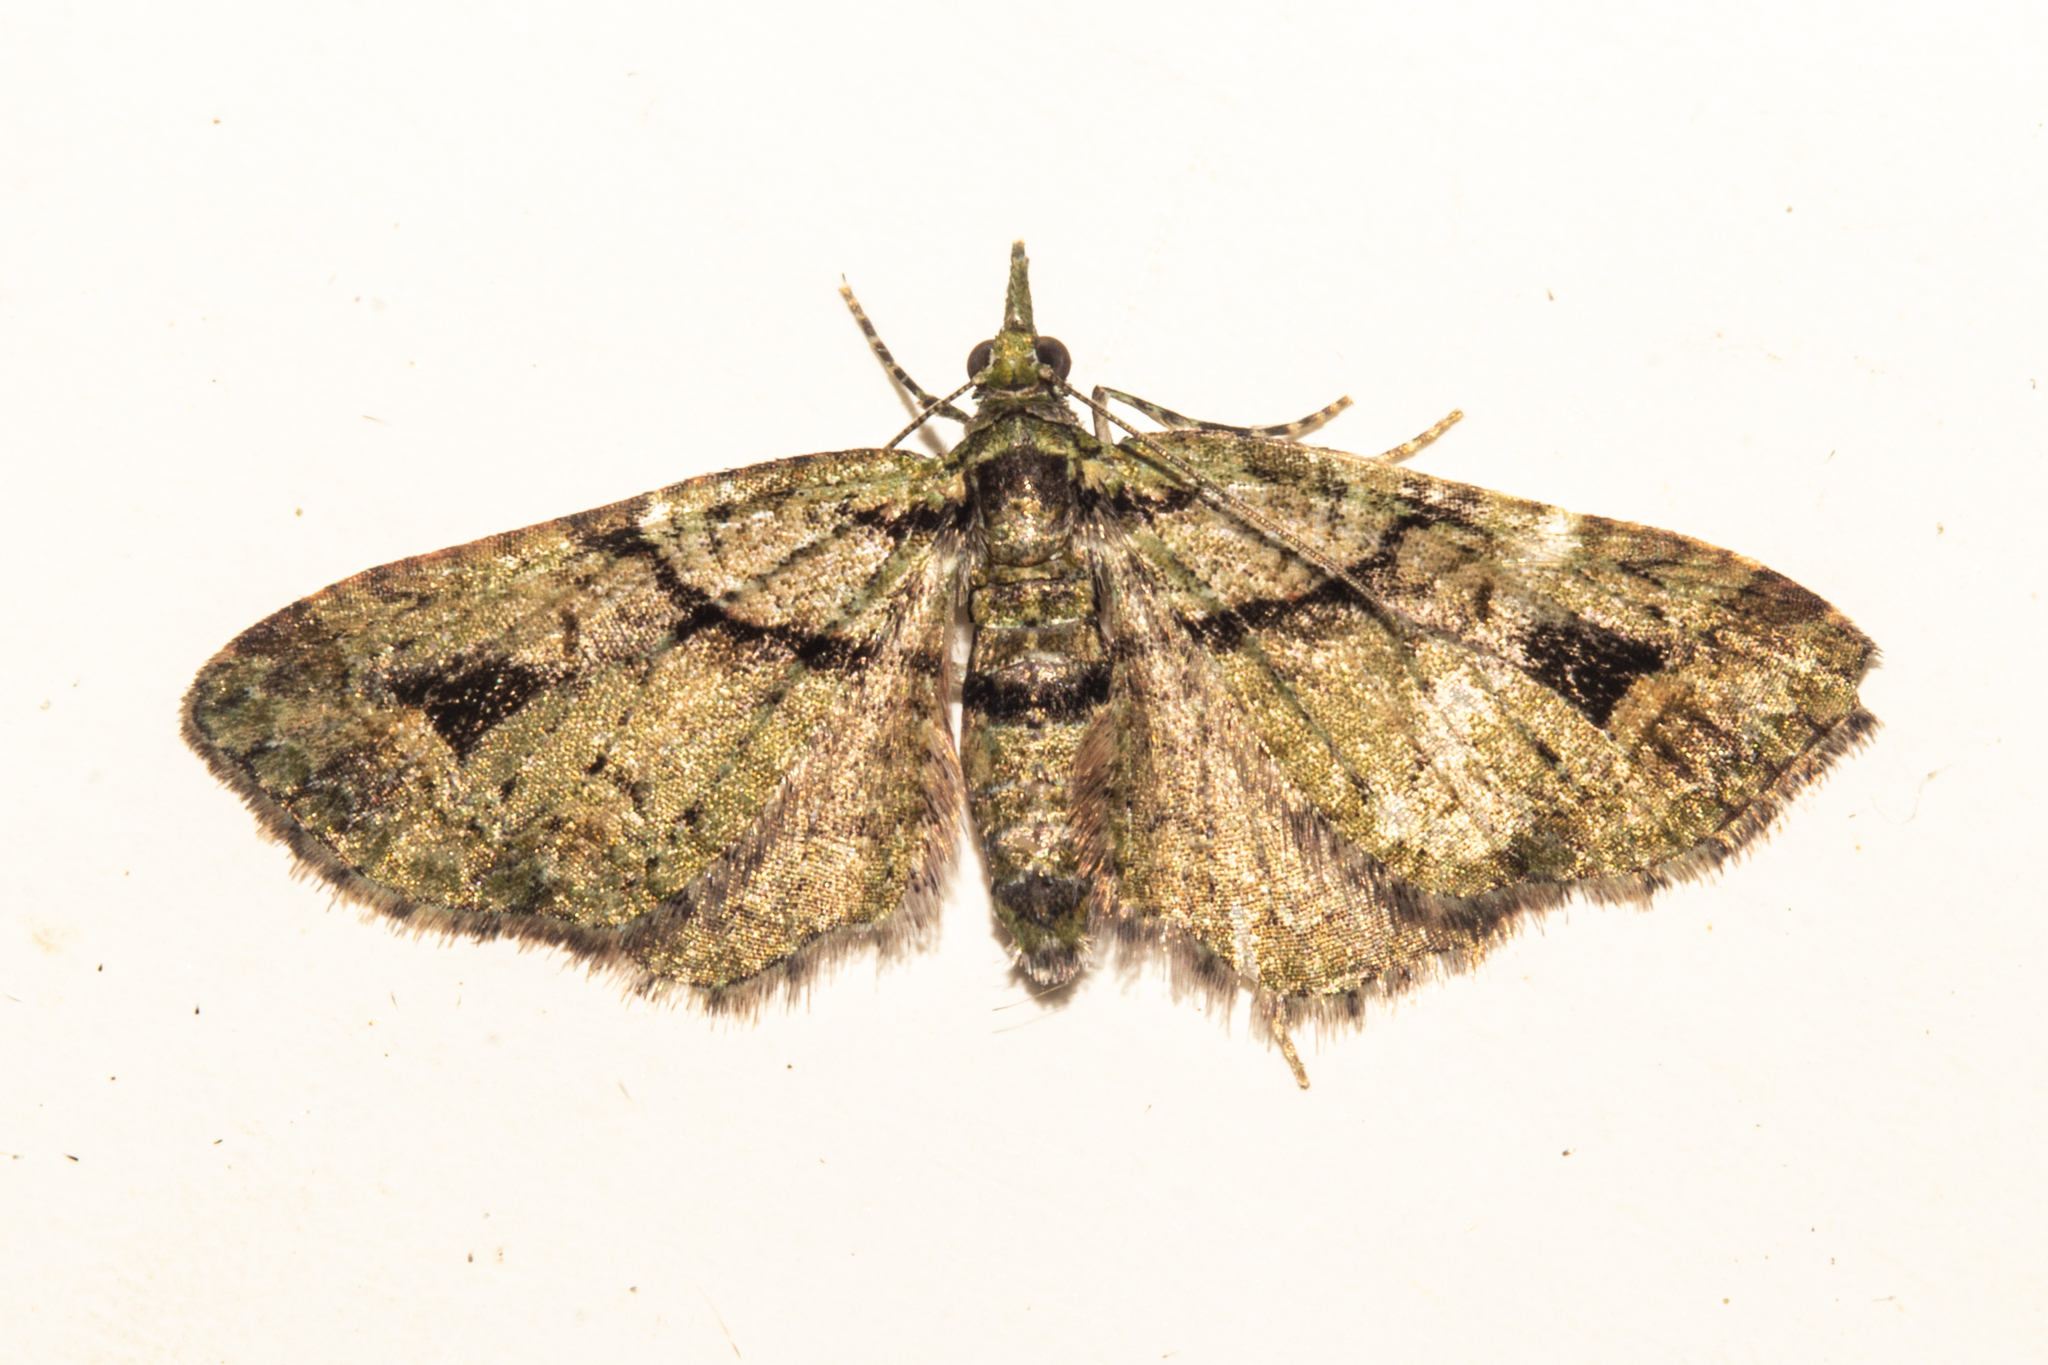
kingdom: Animalia
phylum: Arthropoda
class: Insecta
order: Lepidoptera
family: Geometridae
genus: Idaea
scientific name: Idaea mutanda
